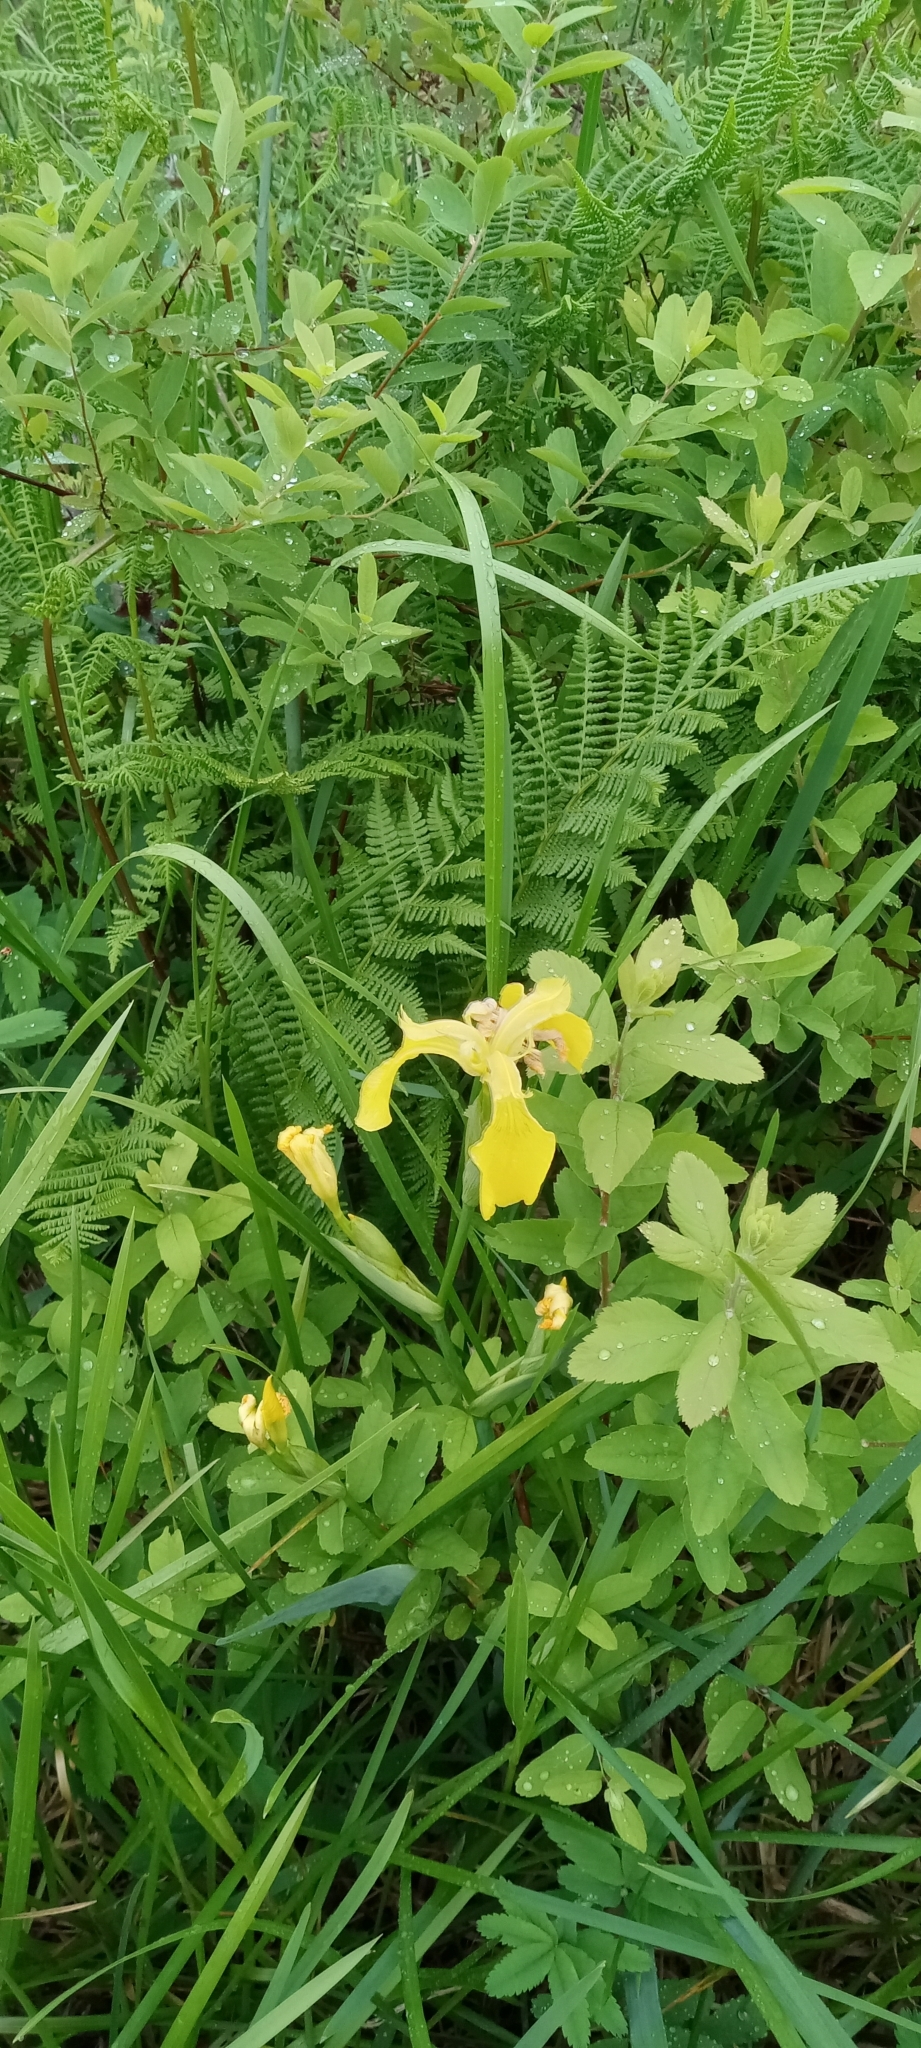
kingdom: Plantae
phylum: Tracheophyta
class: Liliopsida
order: Asparagales
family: Iridaceae
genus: Iris
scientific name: Iris pseudacorus
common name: Yellow flag
